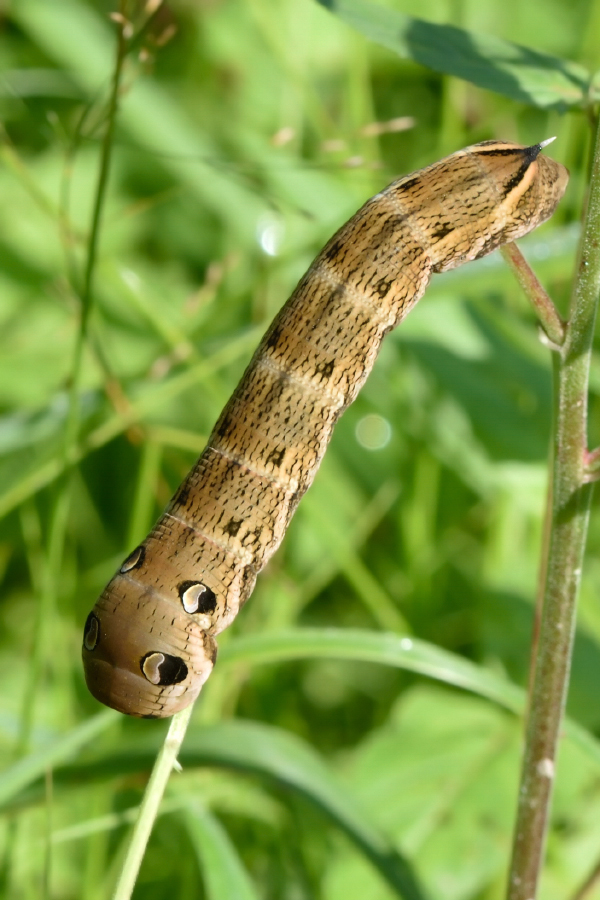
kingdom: Animalia
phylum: Arthropoda
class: Insecta
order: Lepidoptera
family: Sphingidae
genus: Deilephila
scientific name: Deilephila elpenor
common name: Elephant hawk-moth
